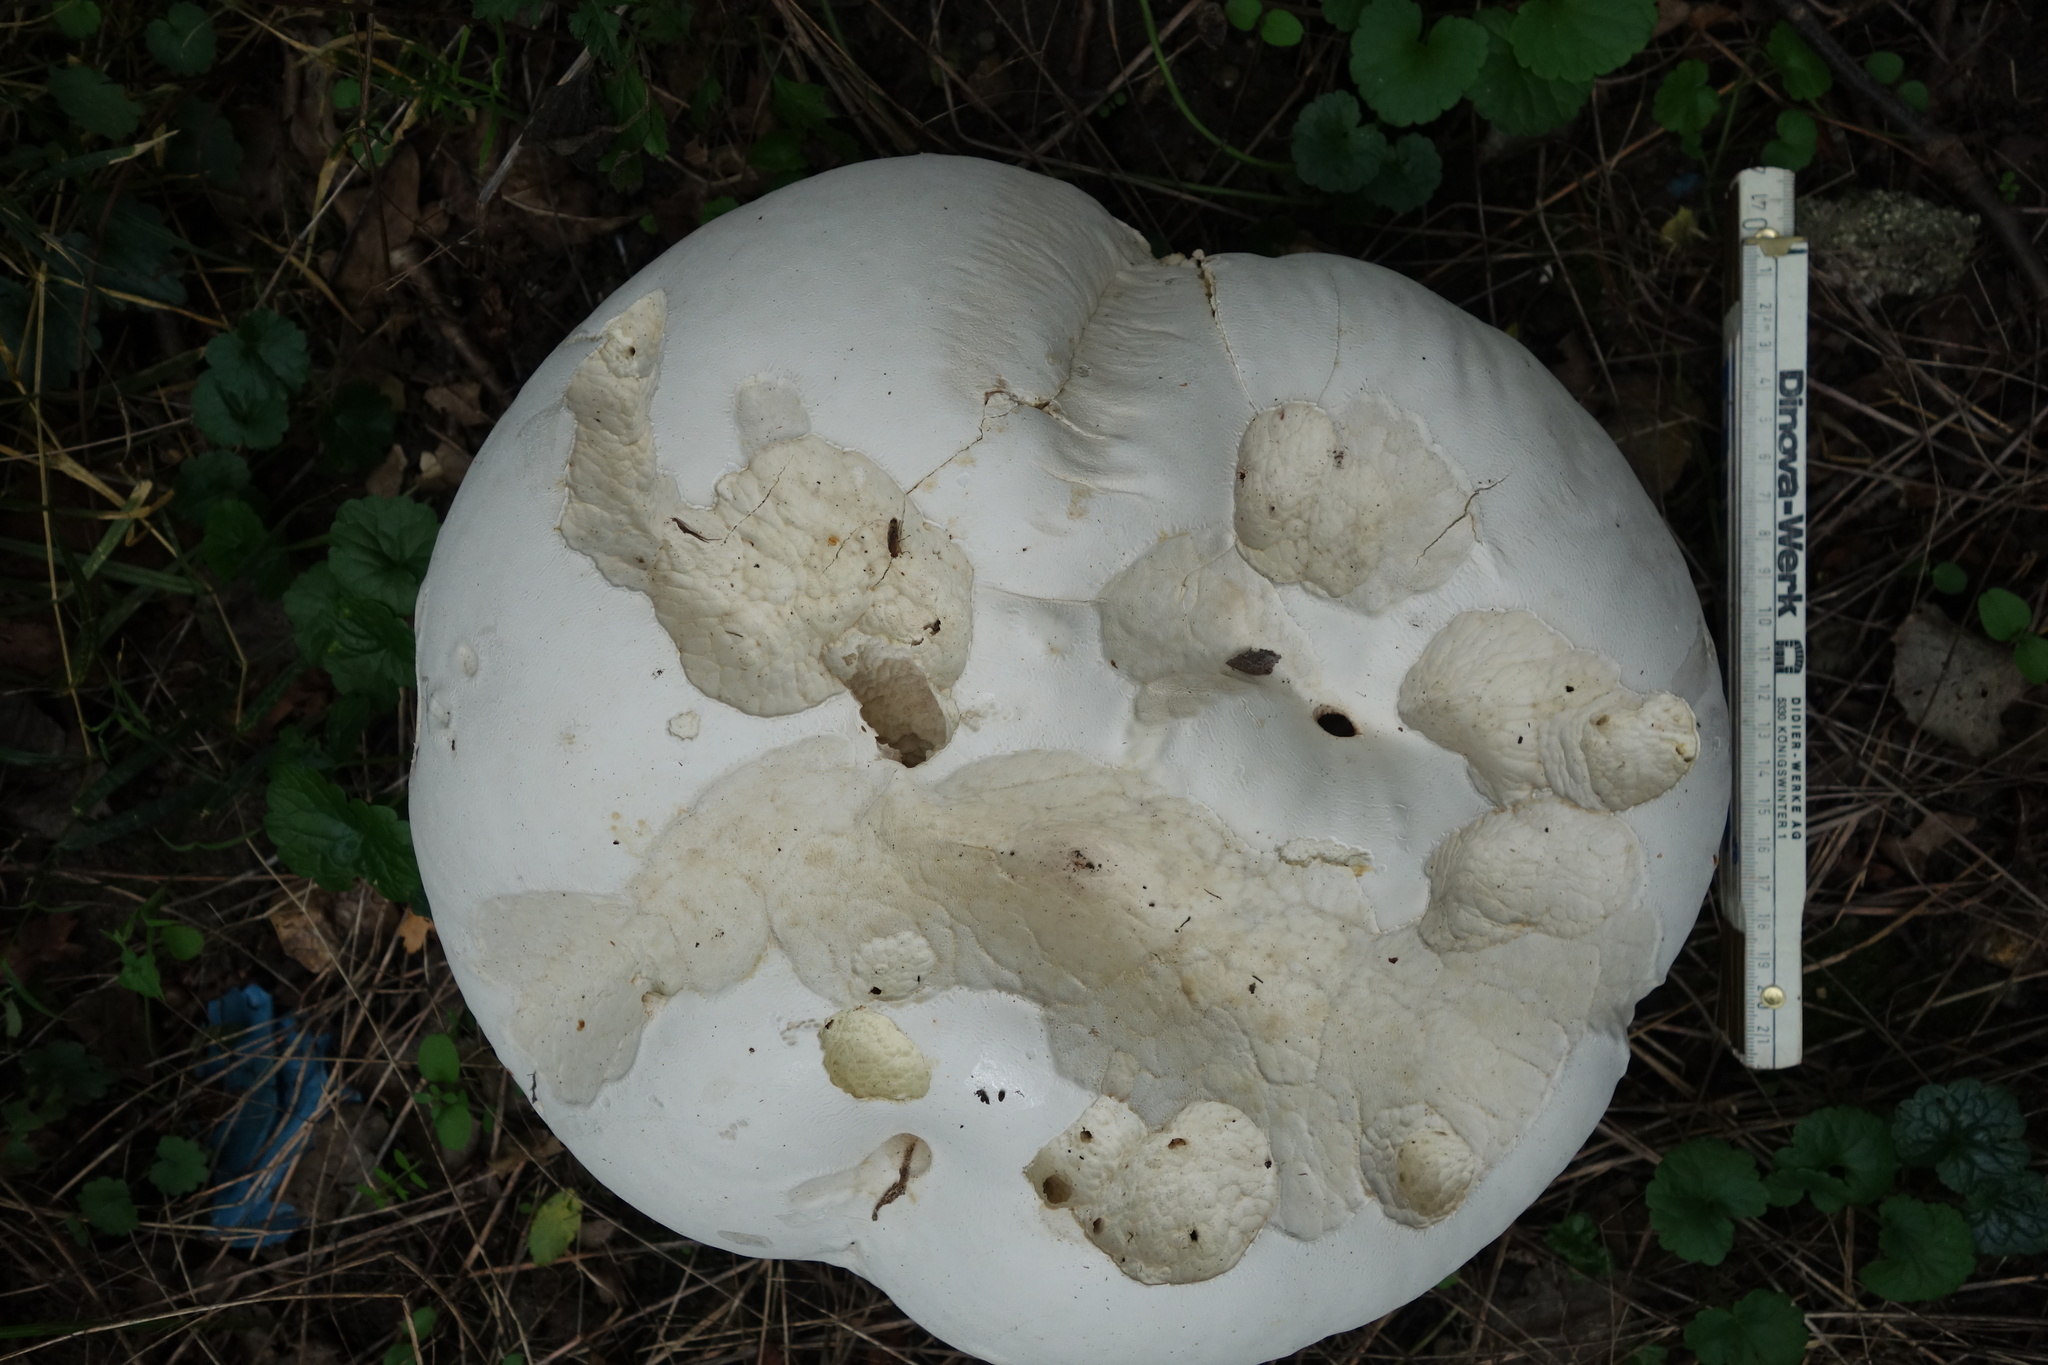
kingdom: Fungi
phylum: Basidiomycota
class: Agaricomycetes
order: Agaricales
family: Lycoperdaceae
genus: Calvatia
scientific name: Calvatia gigantea
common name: Giant puffball
